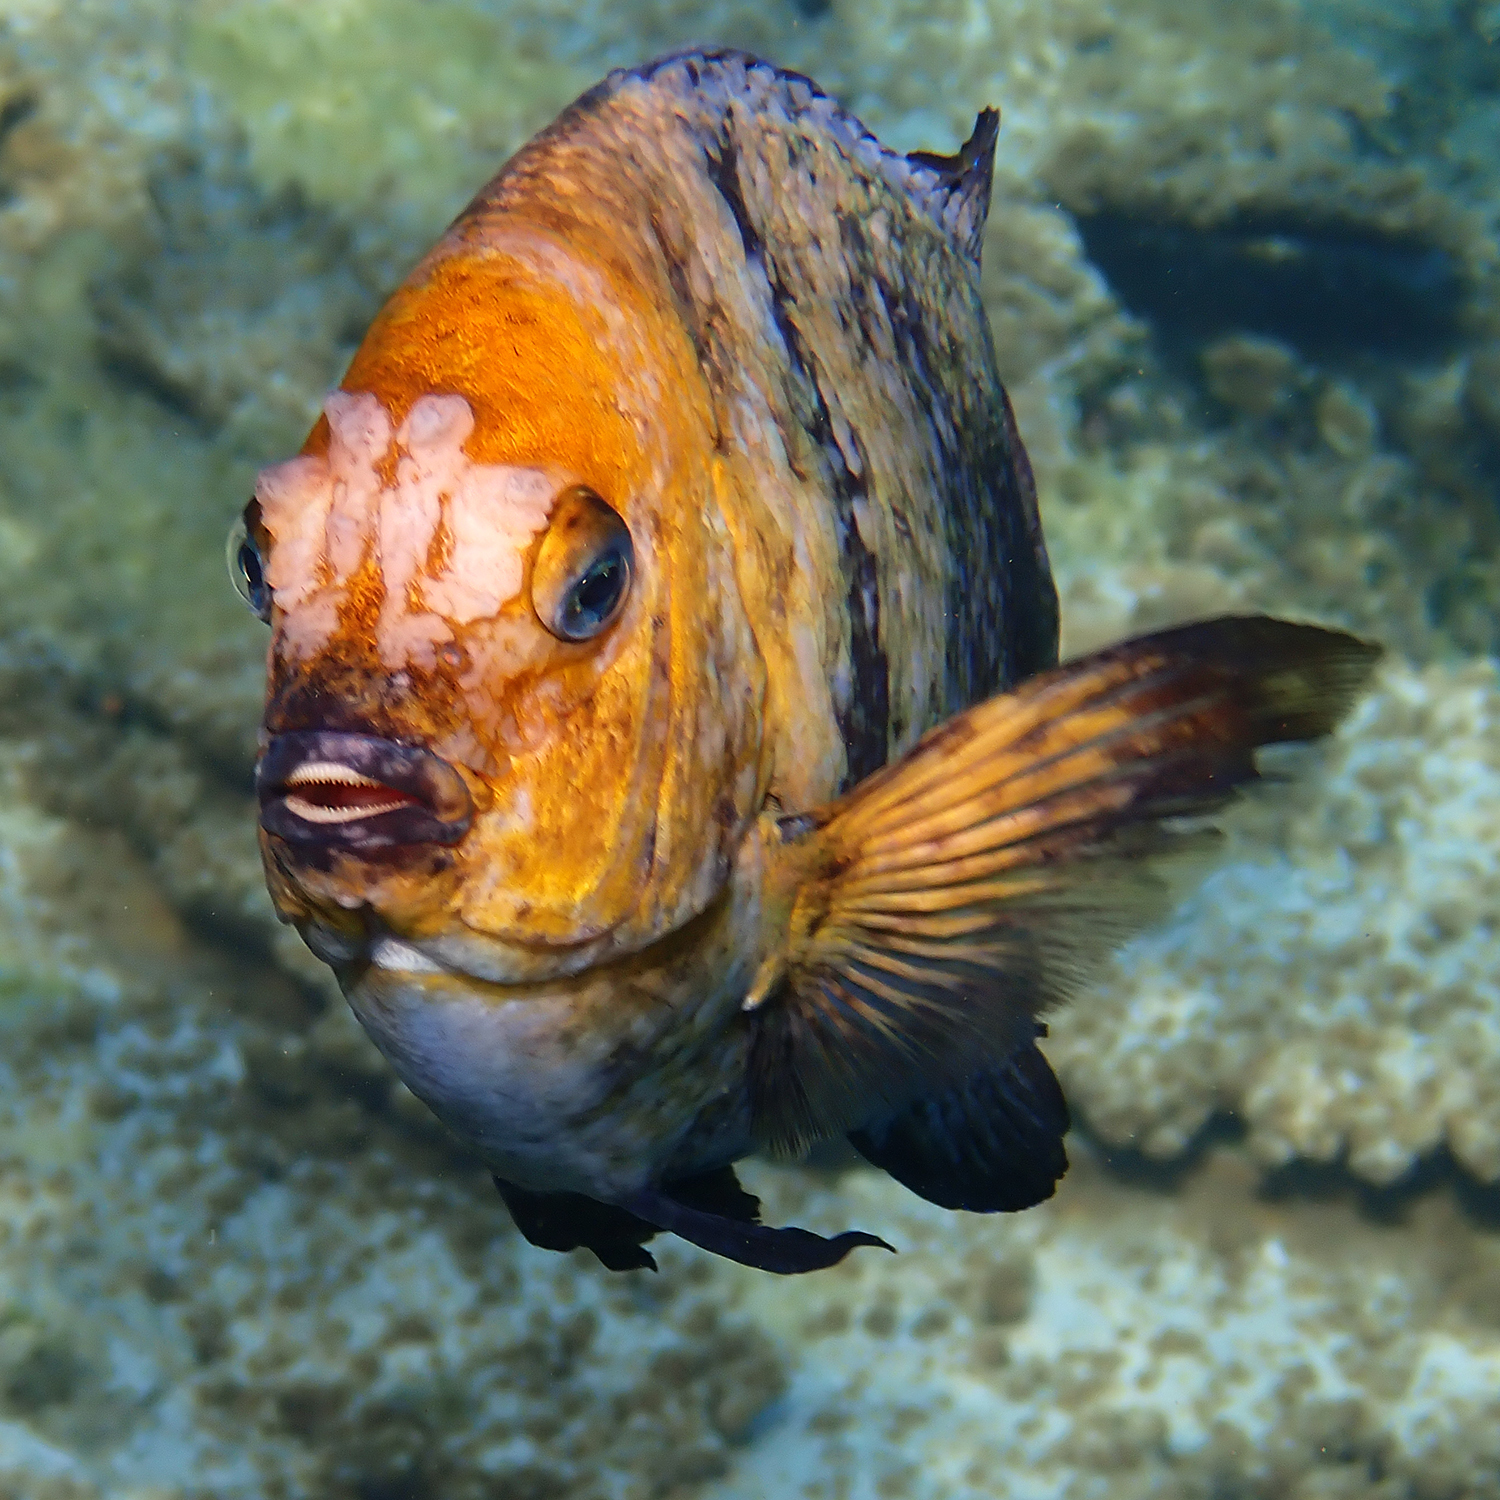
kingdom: Animalia
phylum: Chordata
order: Perciformes
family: Pomacentridae
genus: Parma
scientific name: Parma polylepis
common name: Banded parma
